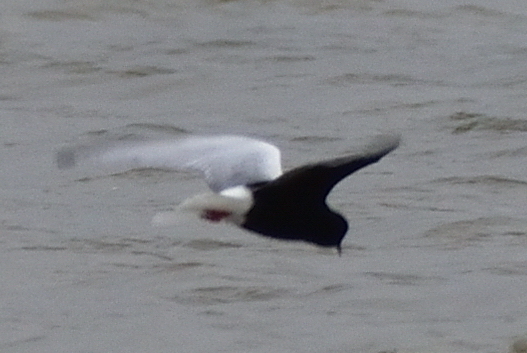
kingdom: Animalia
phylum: Chordata
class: Aves
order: Charadriiformes
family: Laridae
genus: Chlidonias
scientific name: Chlidonias leucopterus
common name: White-winged tern
